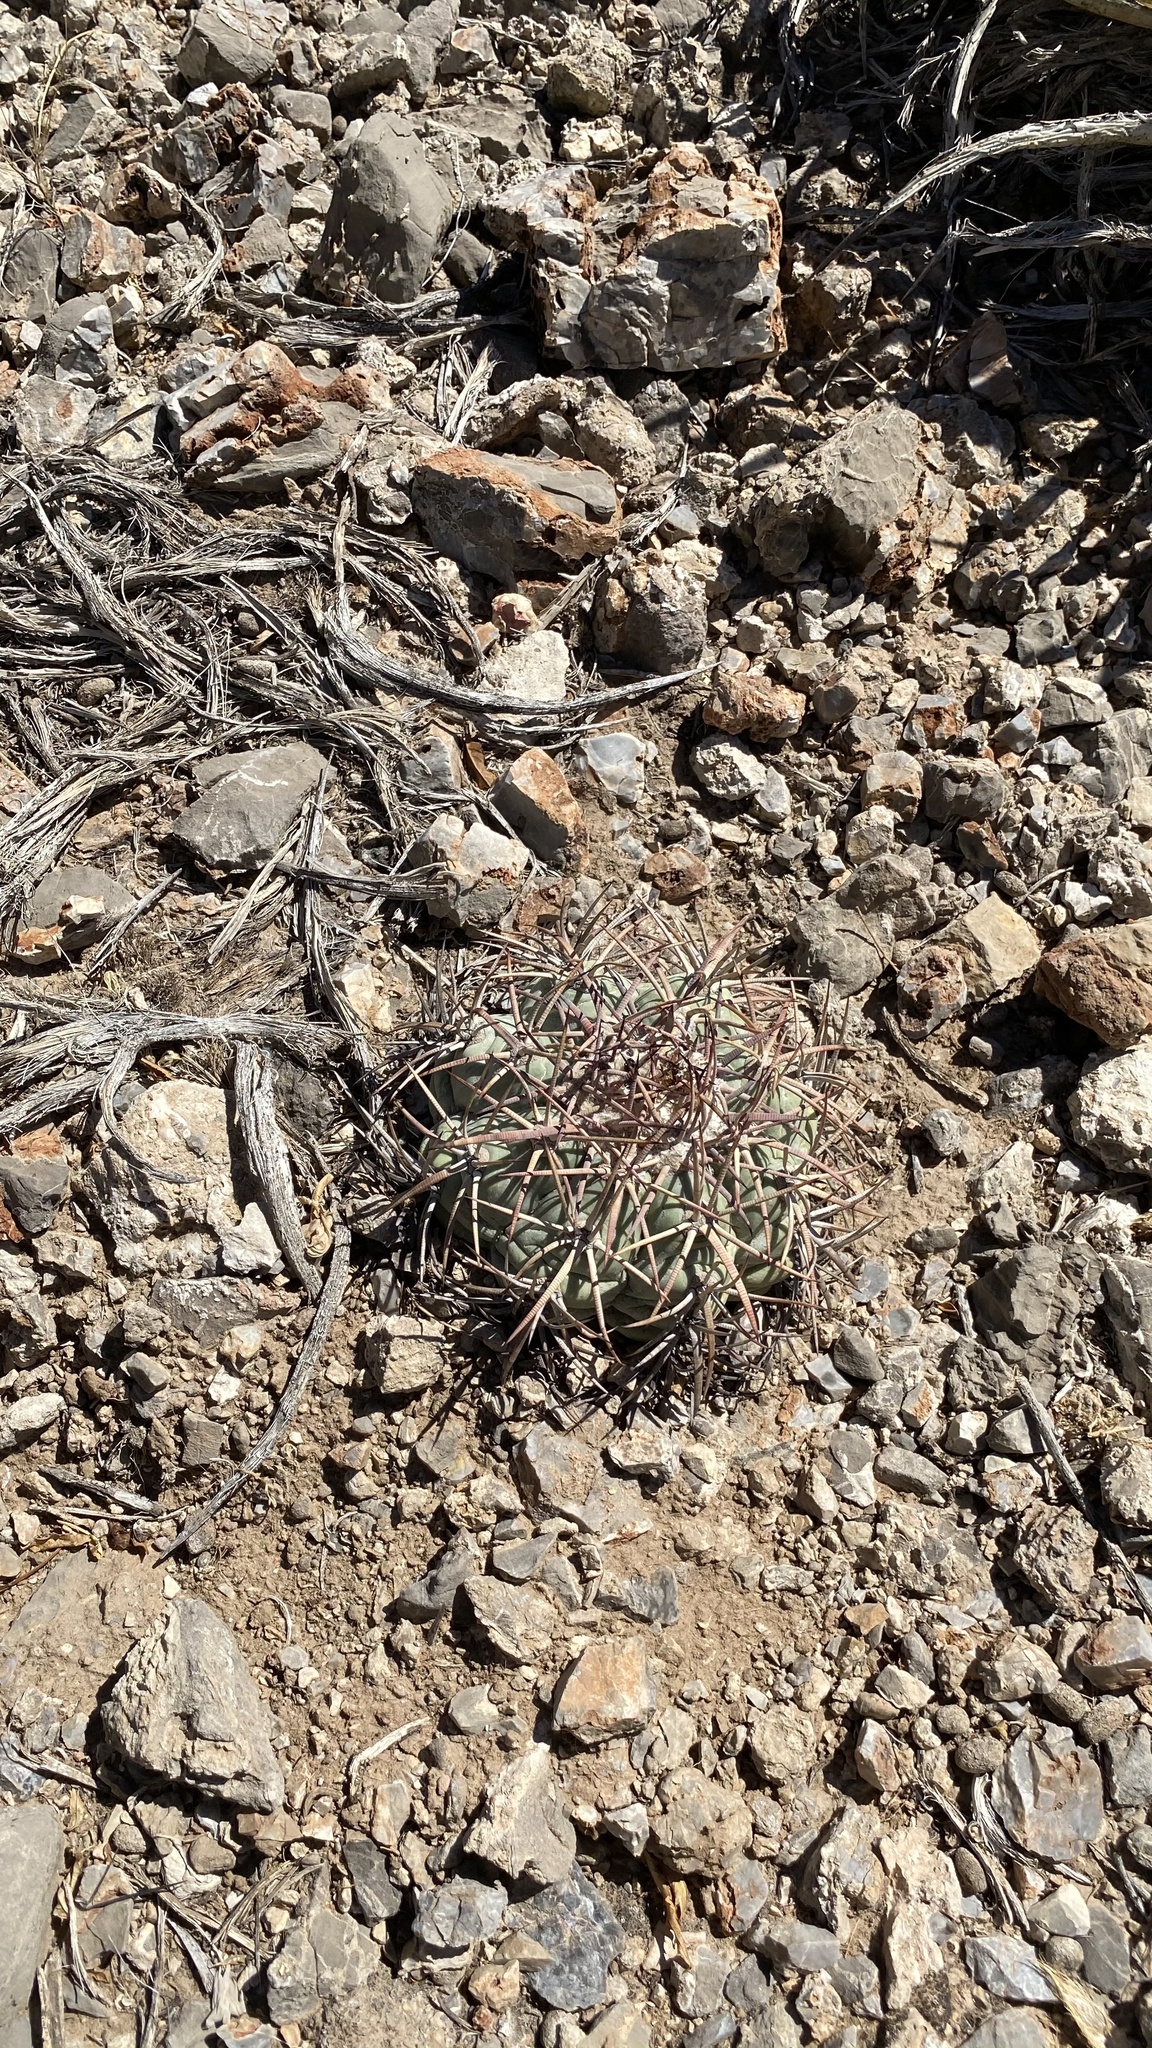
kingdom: Plantae
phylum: Tracheophyta
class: Magnoliopsida
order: Caryophyllales
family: Cactaceae
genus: Echinocactus
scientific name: Echinocactus horizonthalonius
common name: Devilshead
